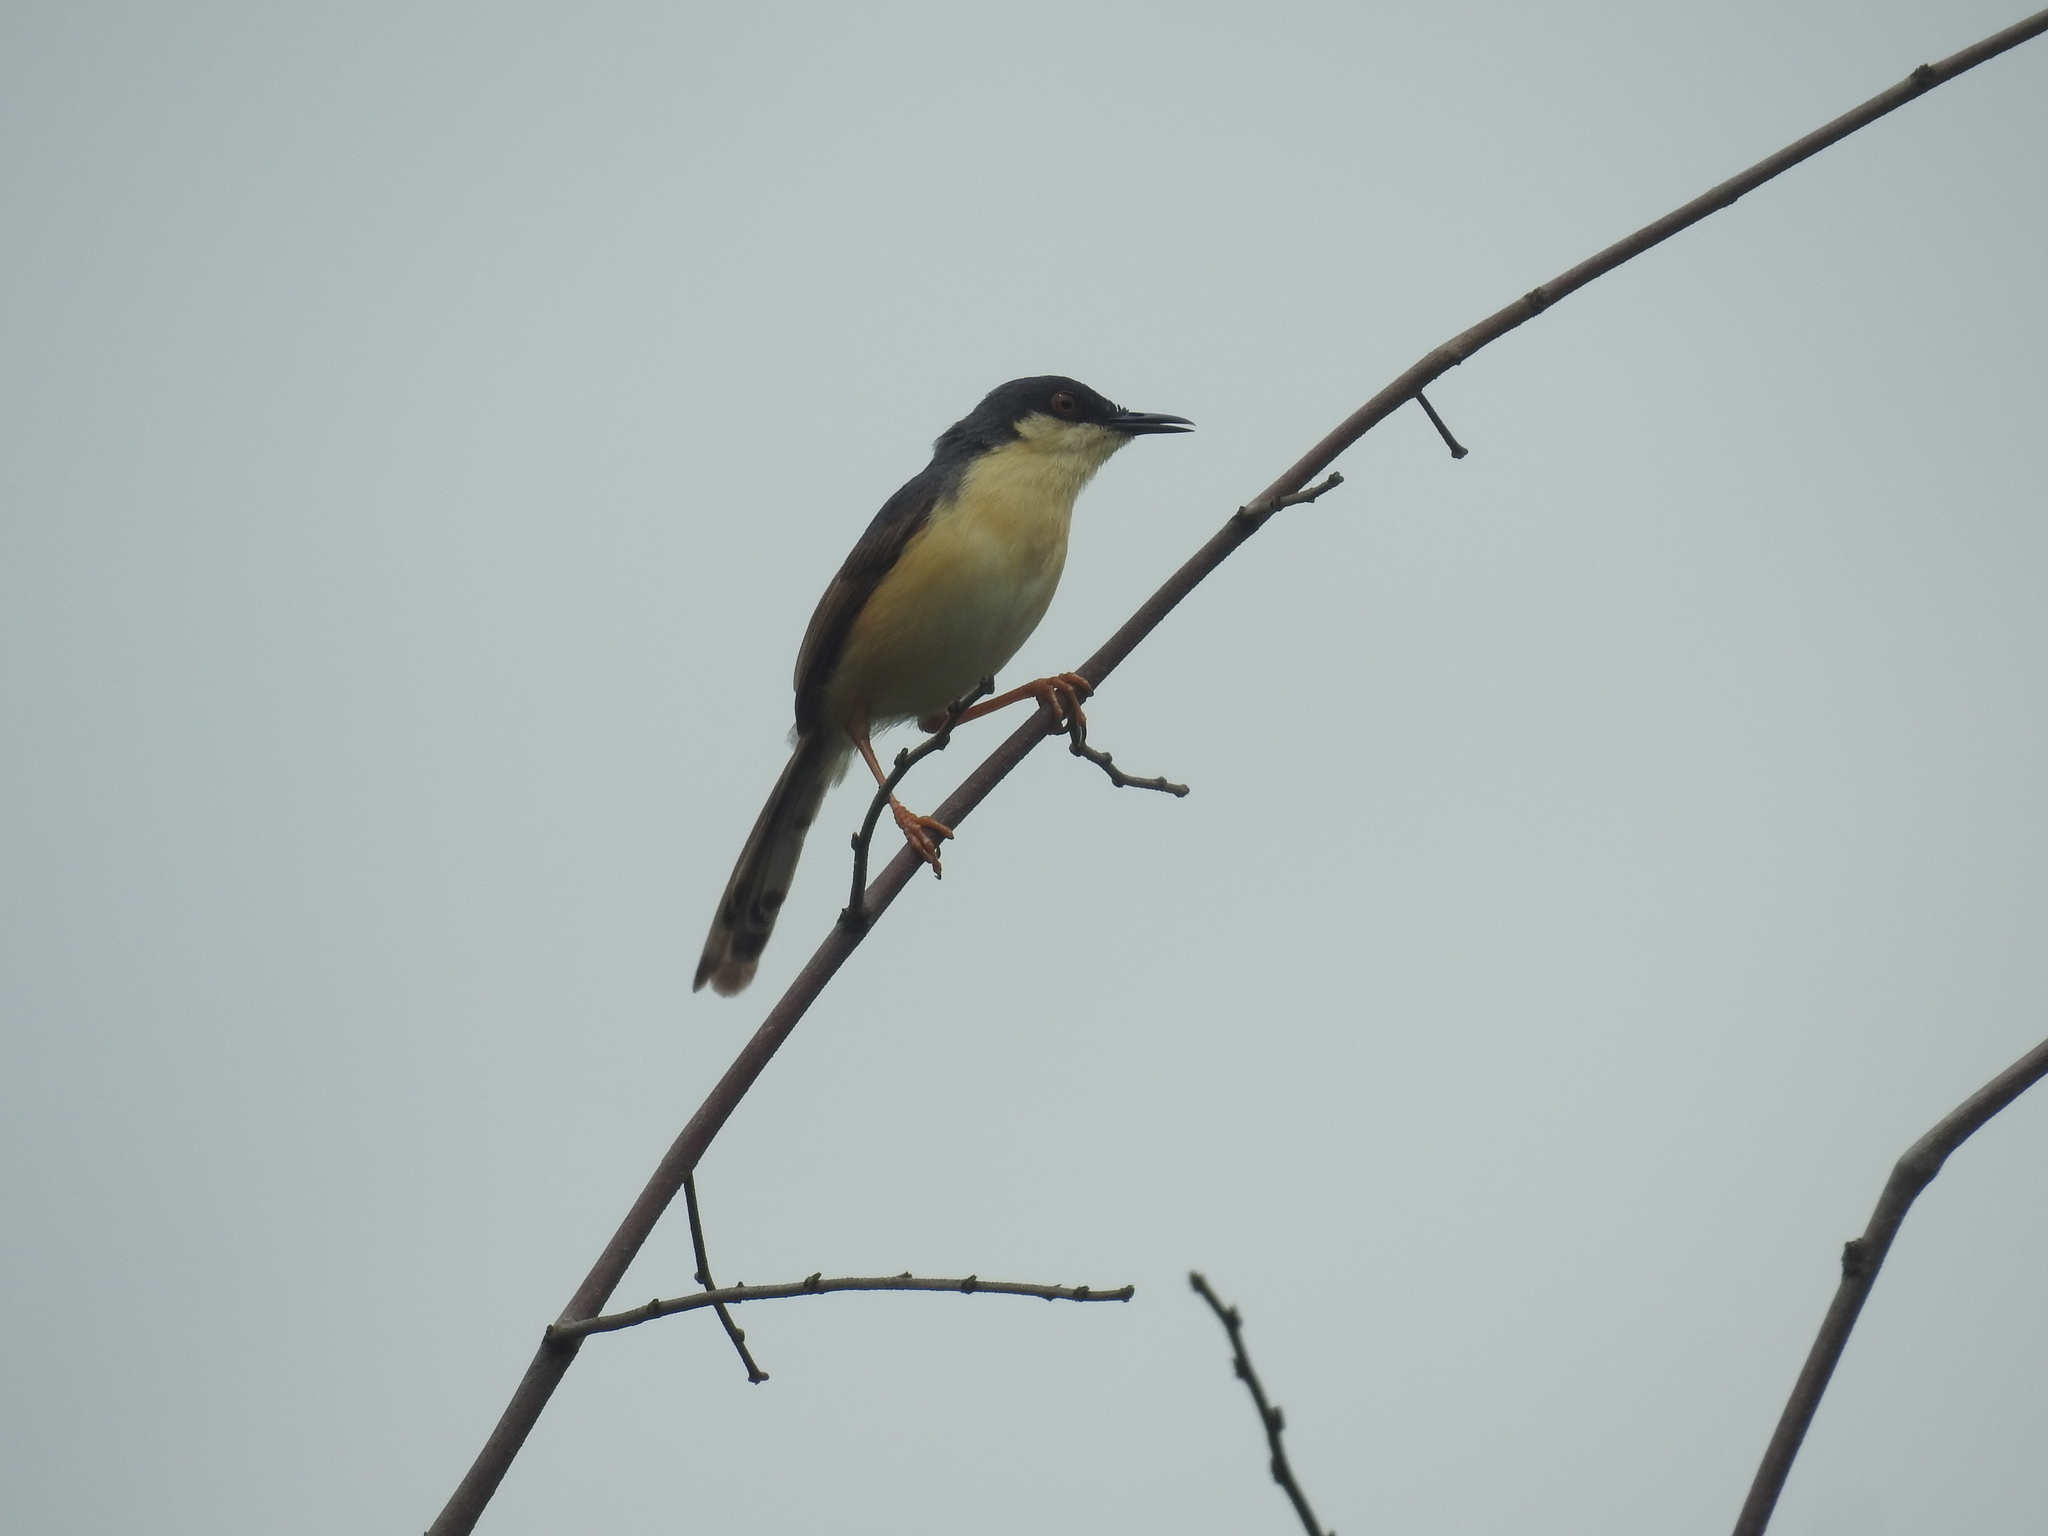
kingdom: Animalia
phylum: Chordata
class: Aves
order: Passeriformes
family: Cisticolidae
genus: Prinia
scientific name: Prinia socialis
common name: Ashy prinia
